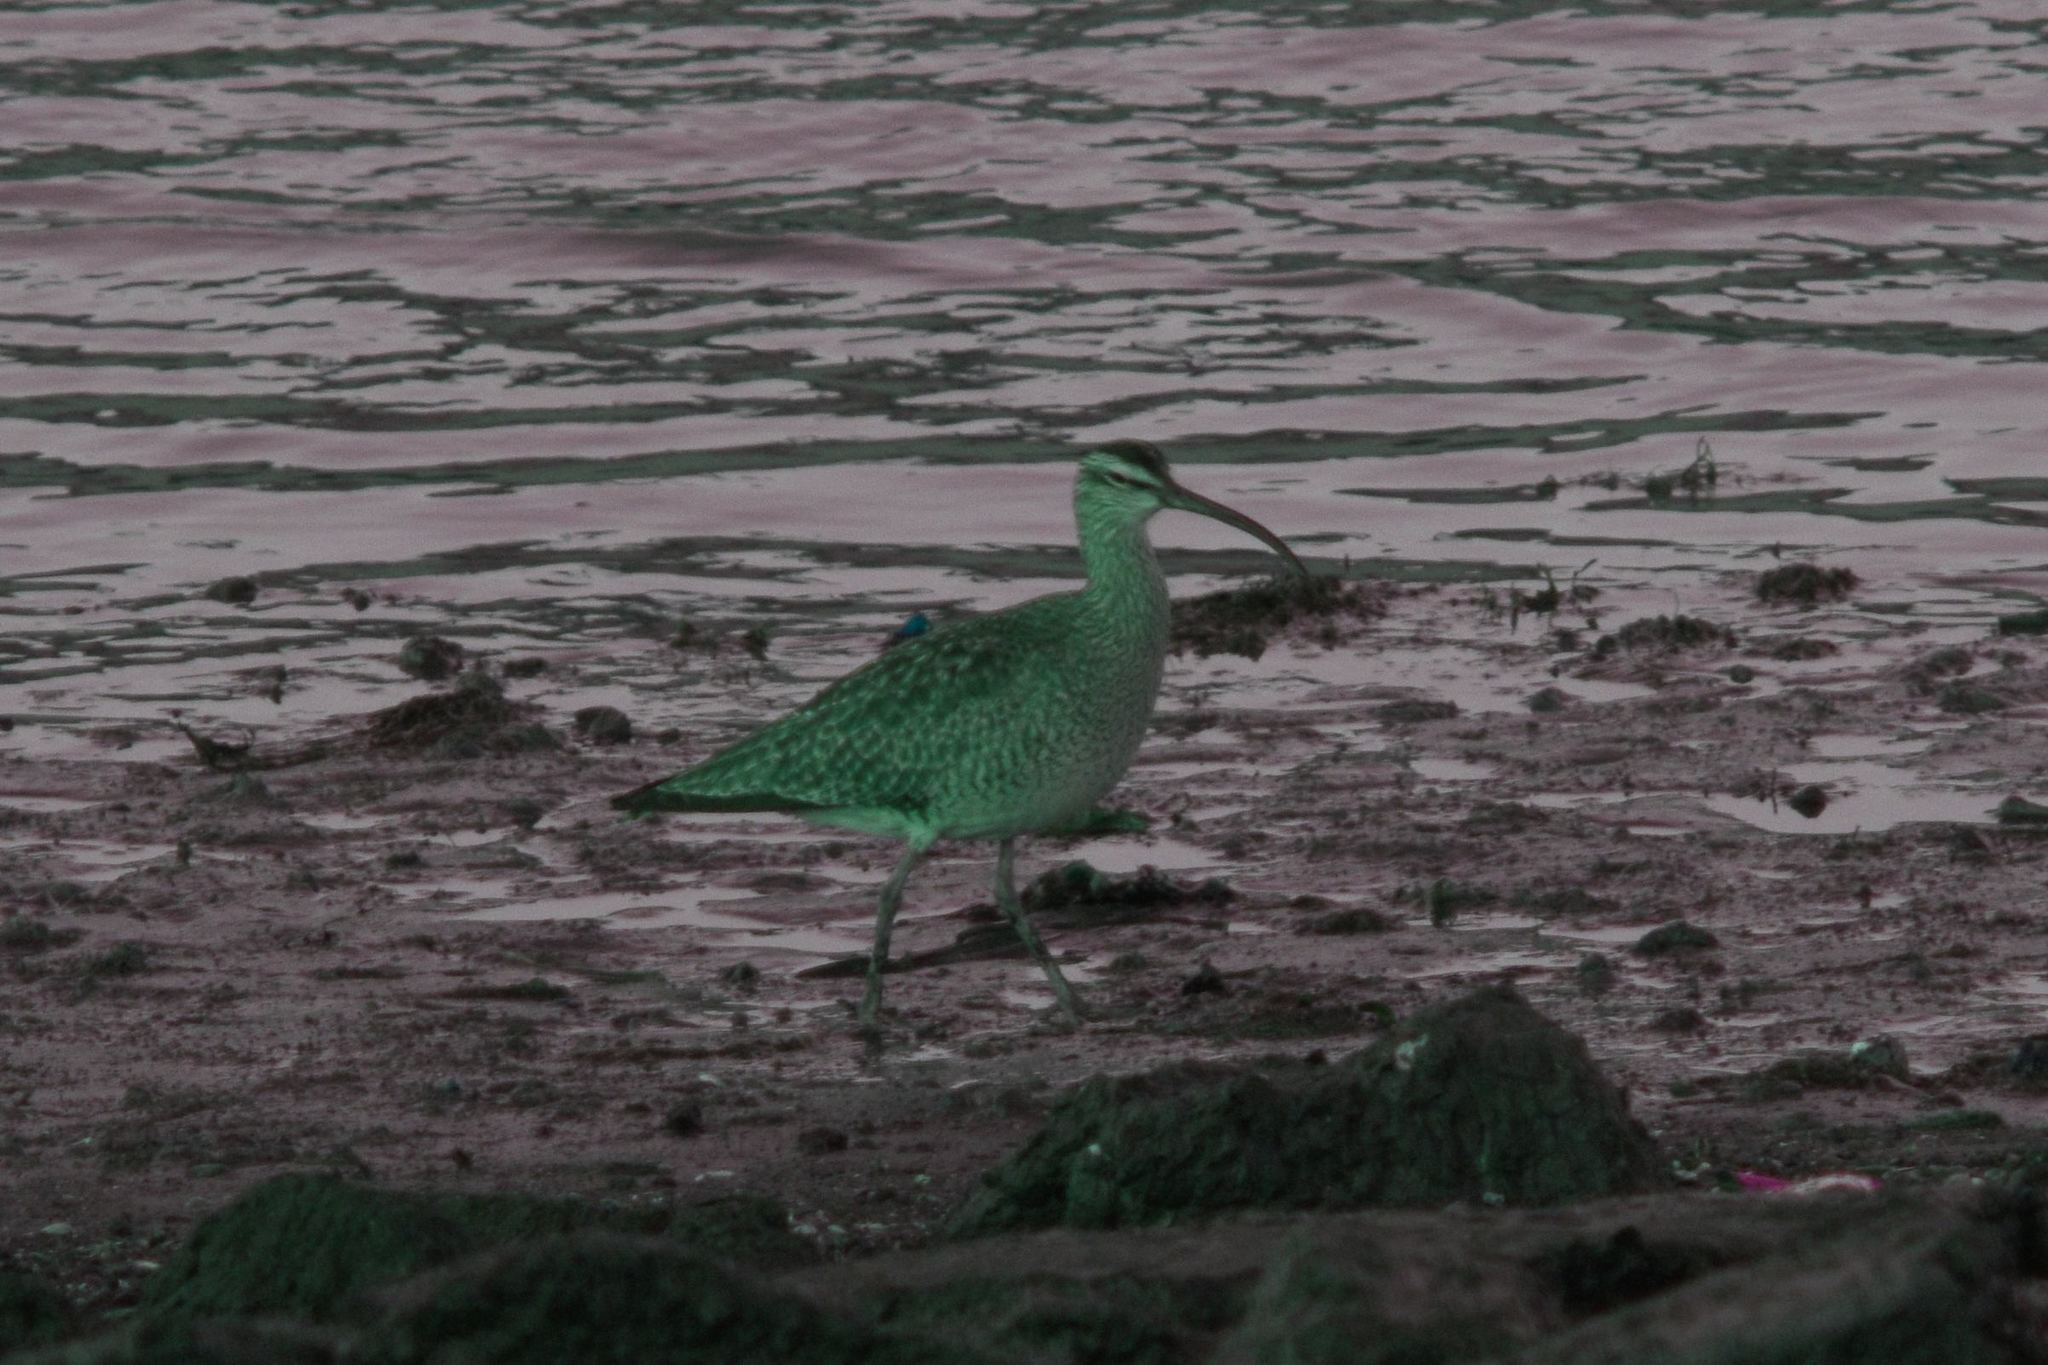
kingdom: Animalia
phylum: Chordata
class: Aves
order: Charadriiformes
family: Scolopacidae
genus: Numenius
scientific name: Numenius phaeopus
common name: Whimbrel
